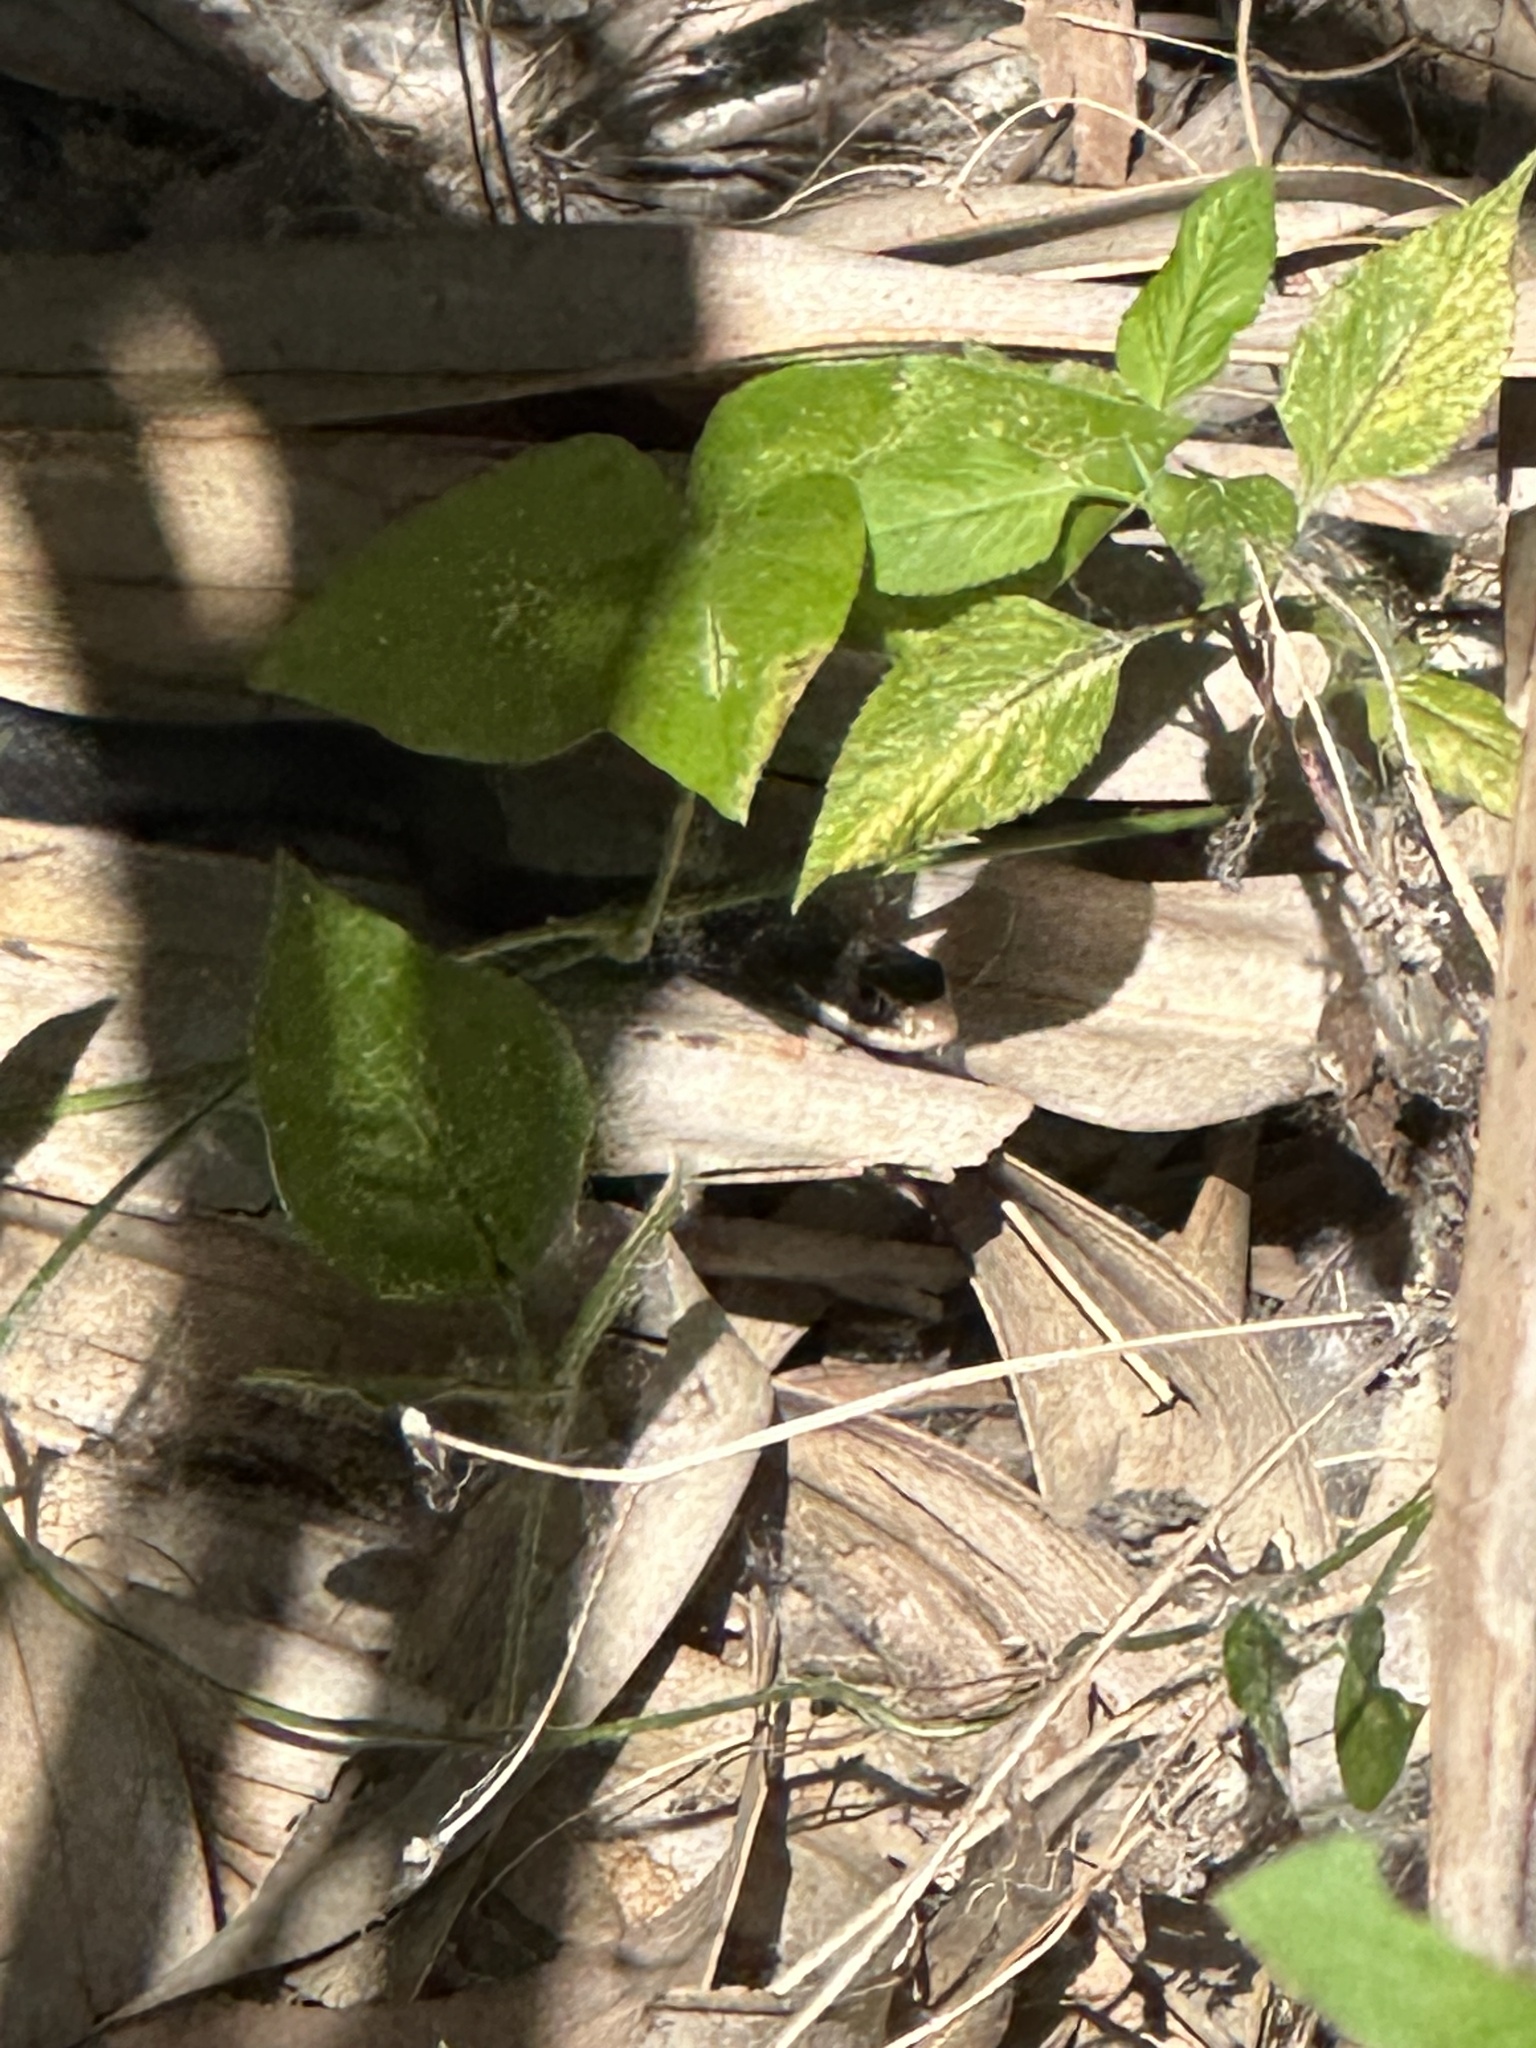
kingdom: Animalia
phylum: Chordata
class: Squamata
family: Colubridae
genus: Coluber
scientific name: Coluber constrictor
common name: Eastern racer
